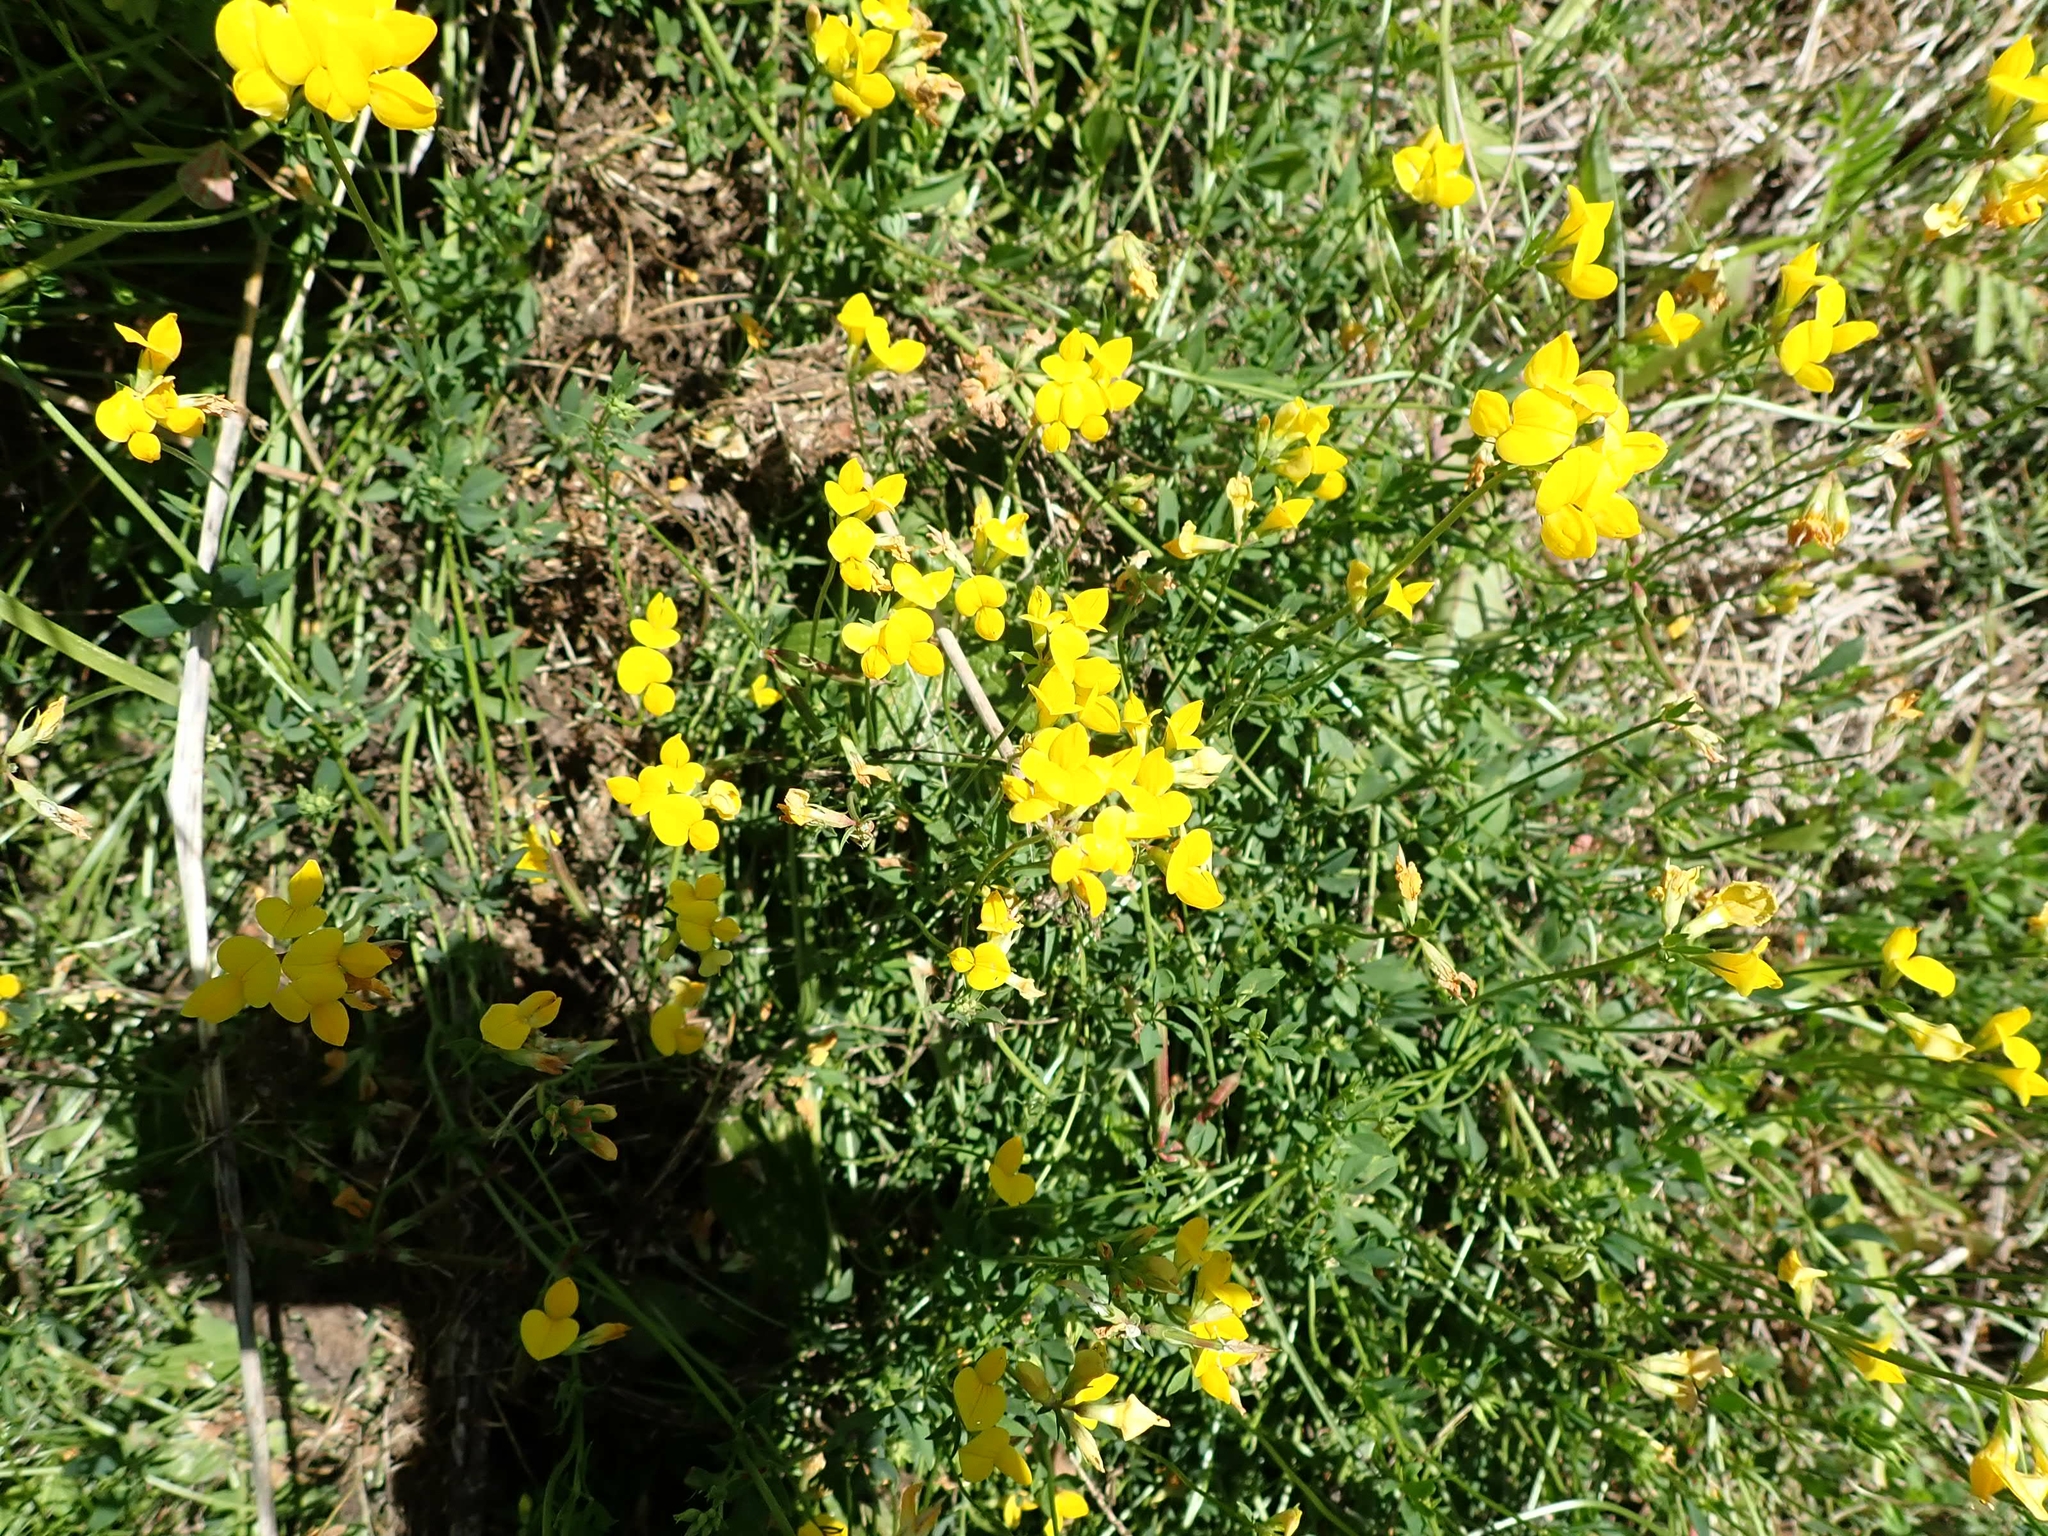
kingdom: Plantae
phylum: Tracheophyta
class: Magnoliopsida
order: Fabales
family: Fabaceae
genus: Lotus
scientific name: Lotus corniculatus
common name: Common bird's-foot-trefoil
